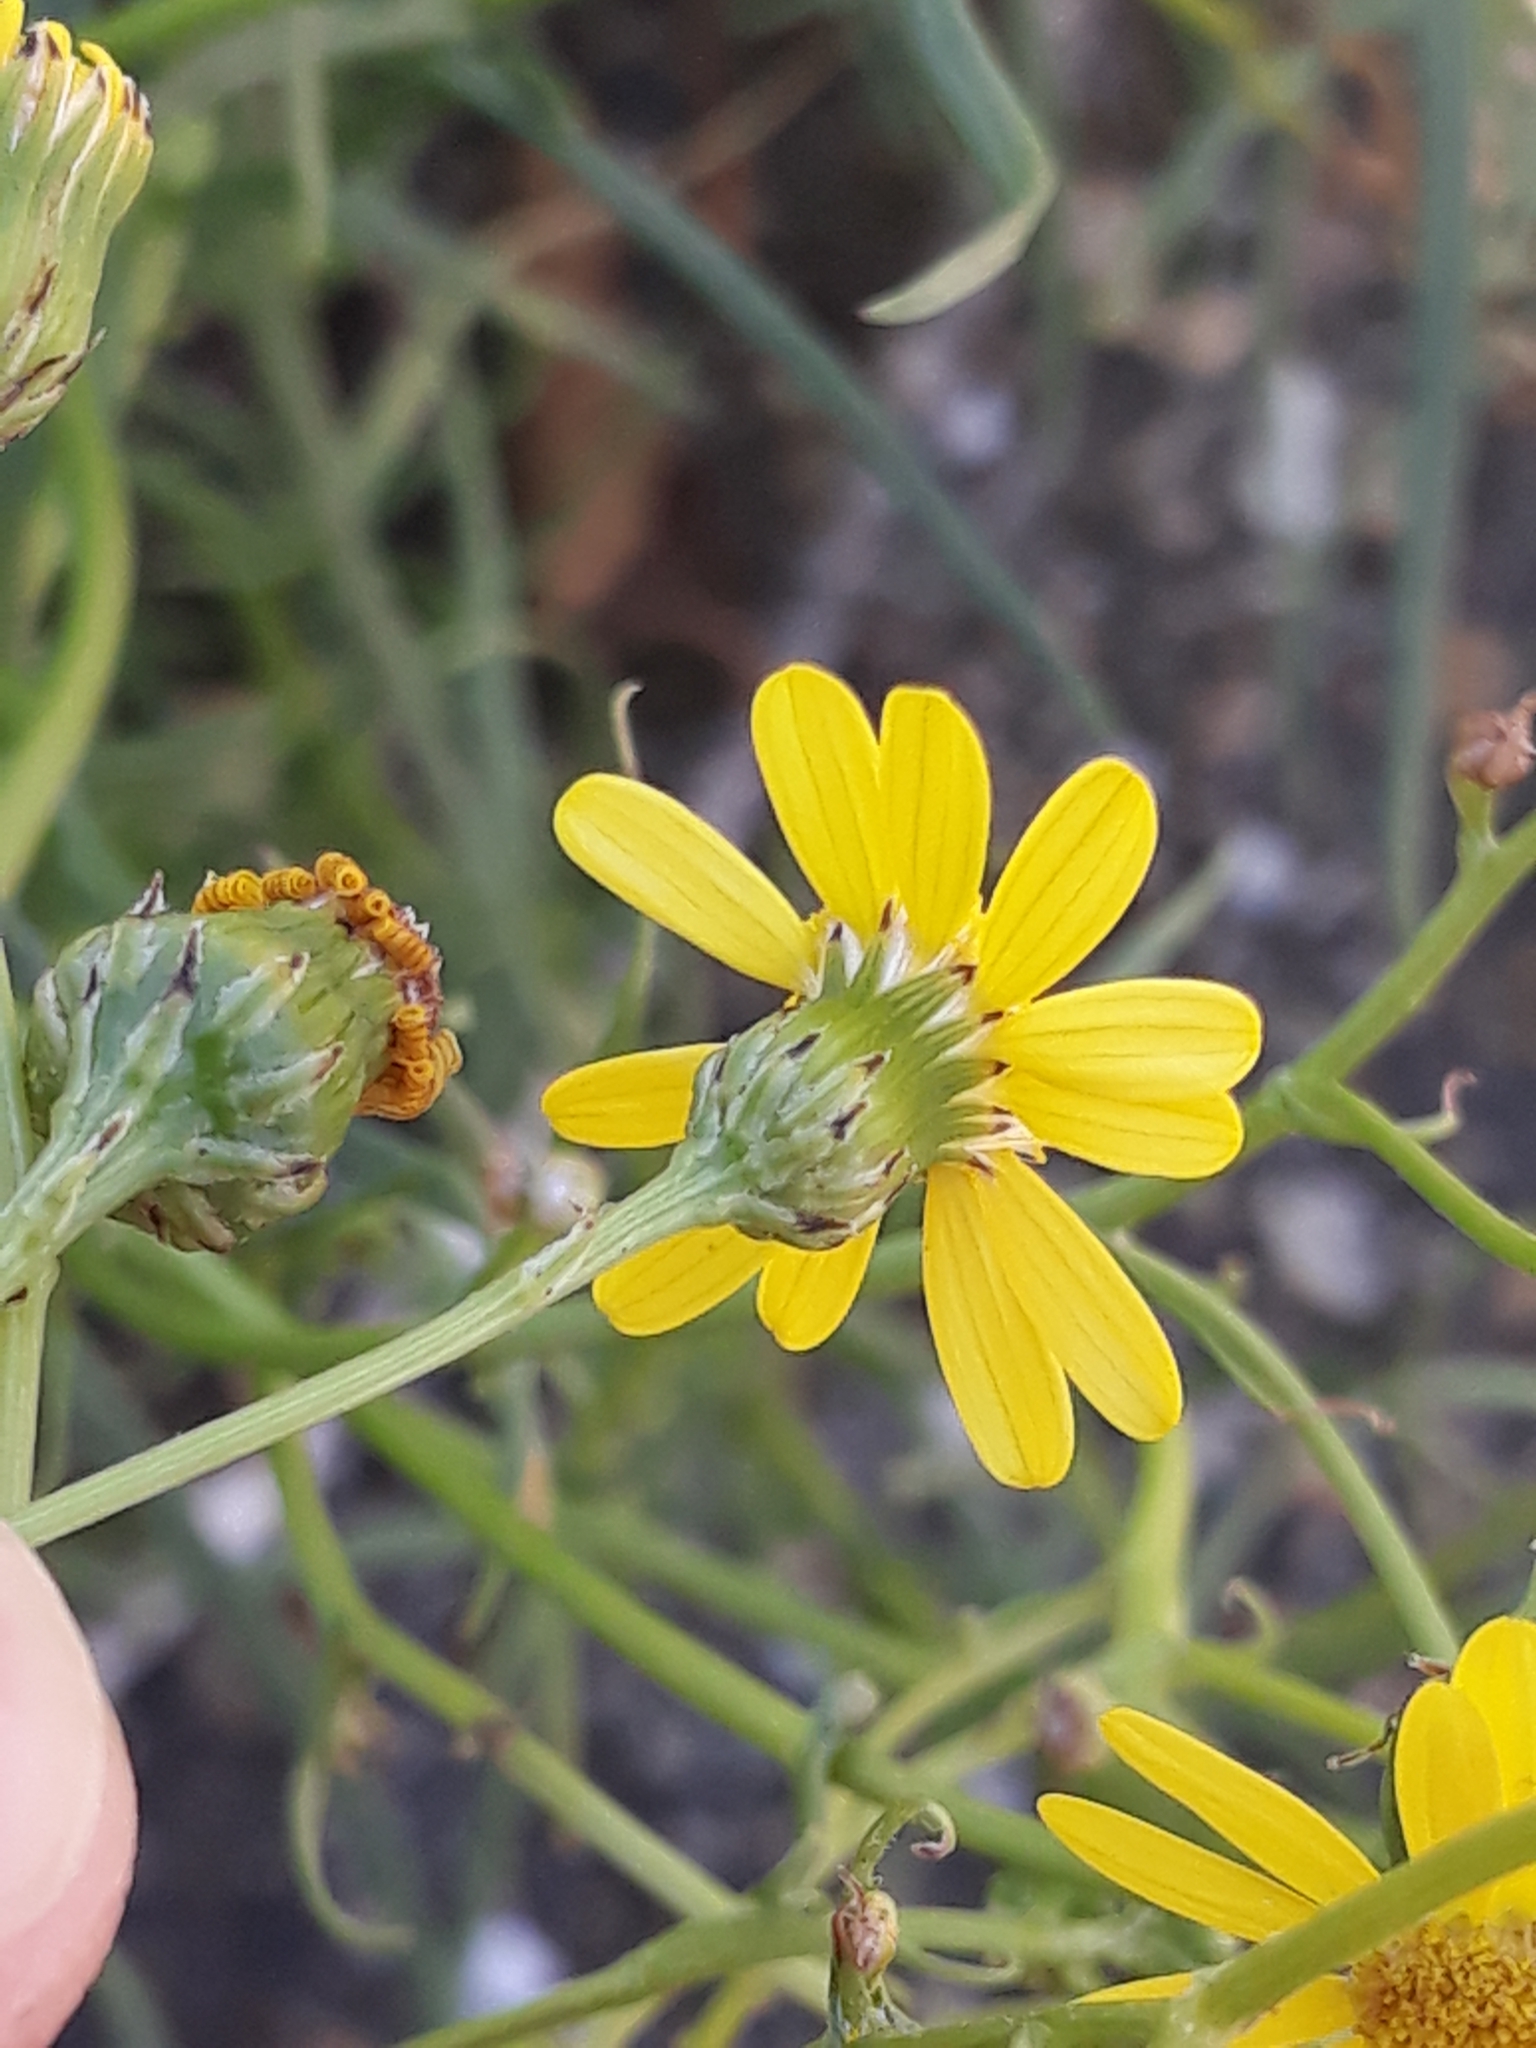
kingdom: Plantae
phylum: Tracheophyta
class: Magnoliopsida
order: Asterales
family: Asteraceae
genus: Senecio
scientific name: Senecio inaequidens
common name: Narrow-leaved ragwort
